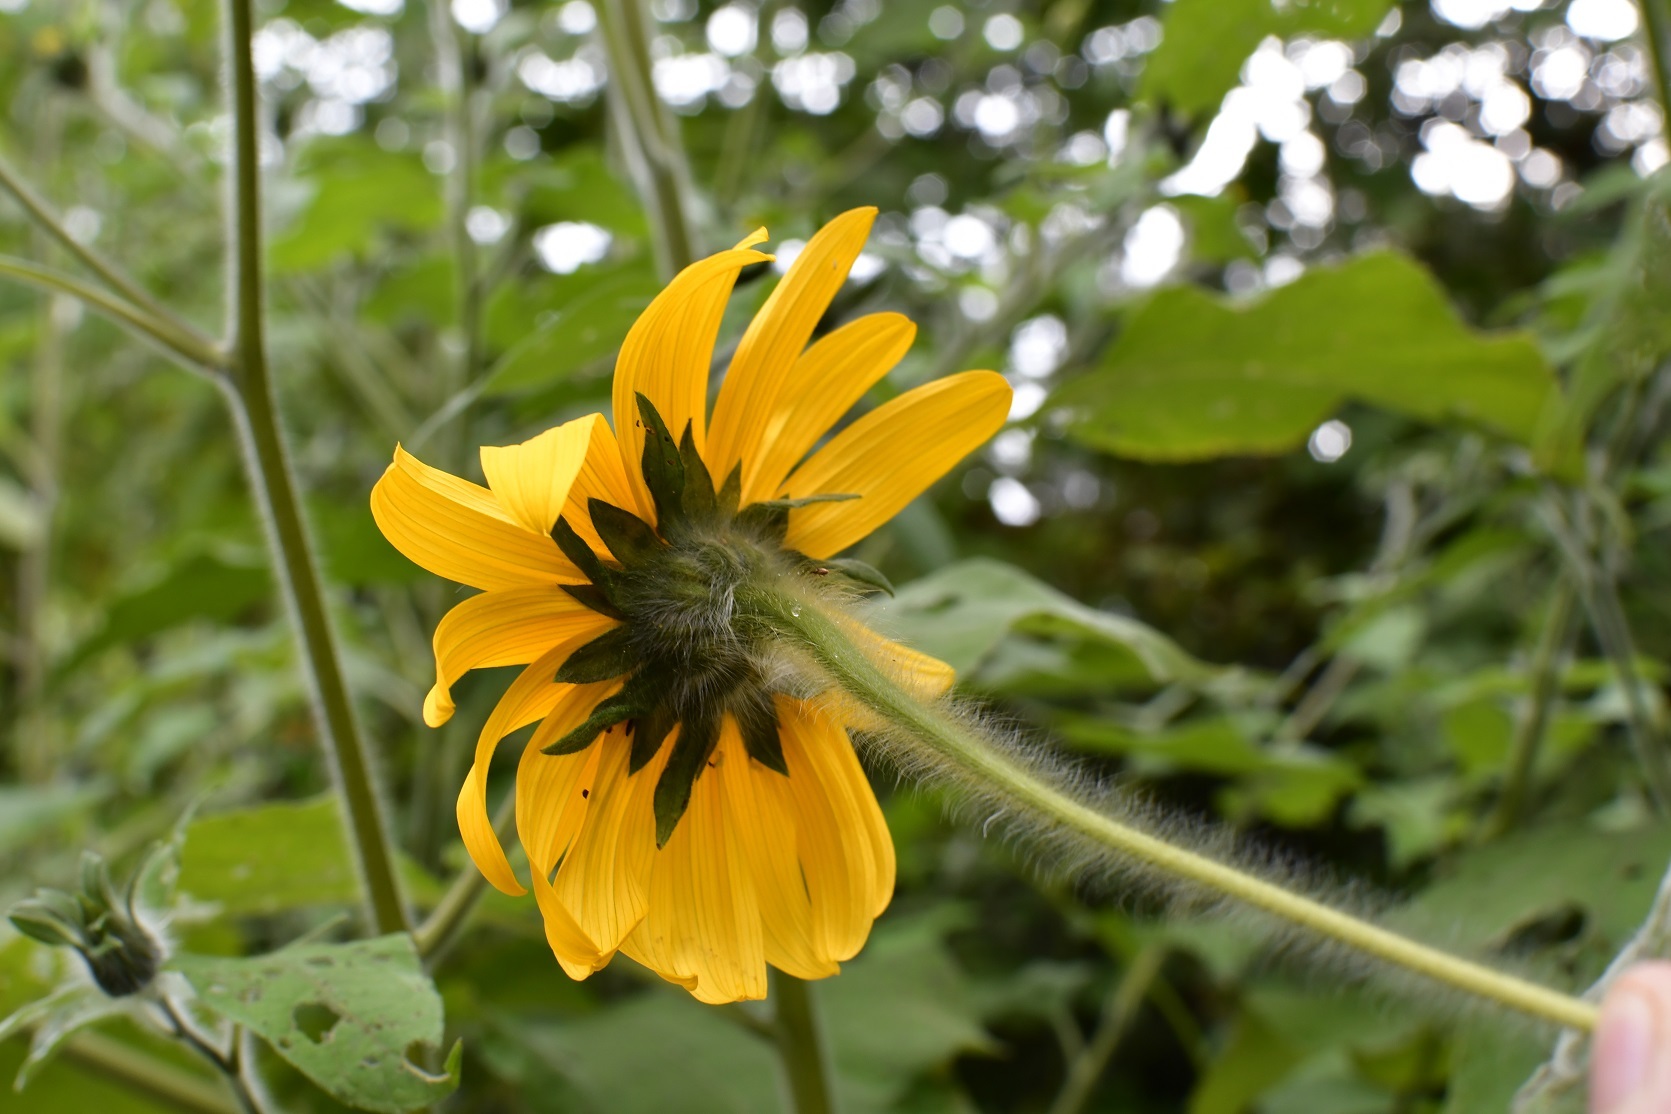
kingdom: Plantae
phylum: Tracheophyta
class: Magnoliopsida
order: Asterales
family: Asteraceae
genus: Tithonia
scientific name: Tithonia tubaeformis
